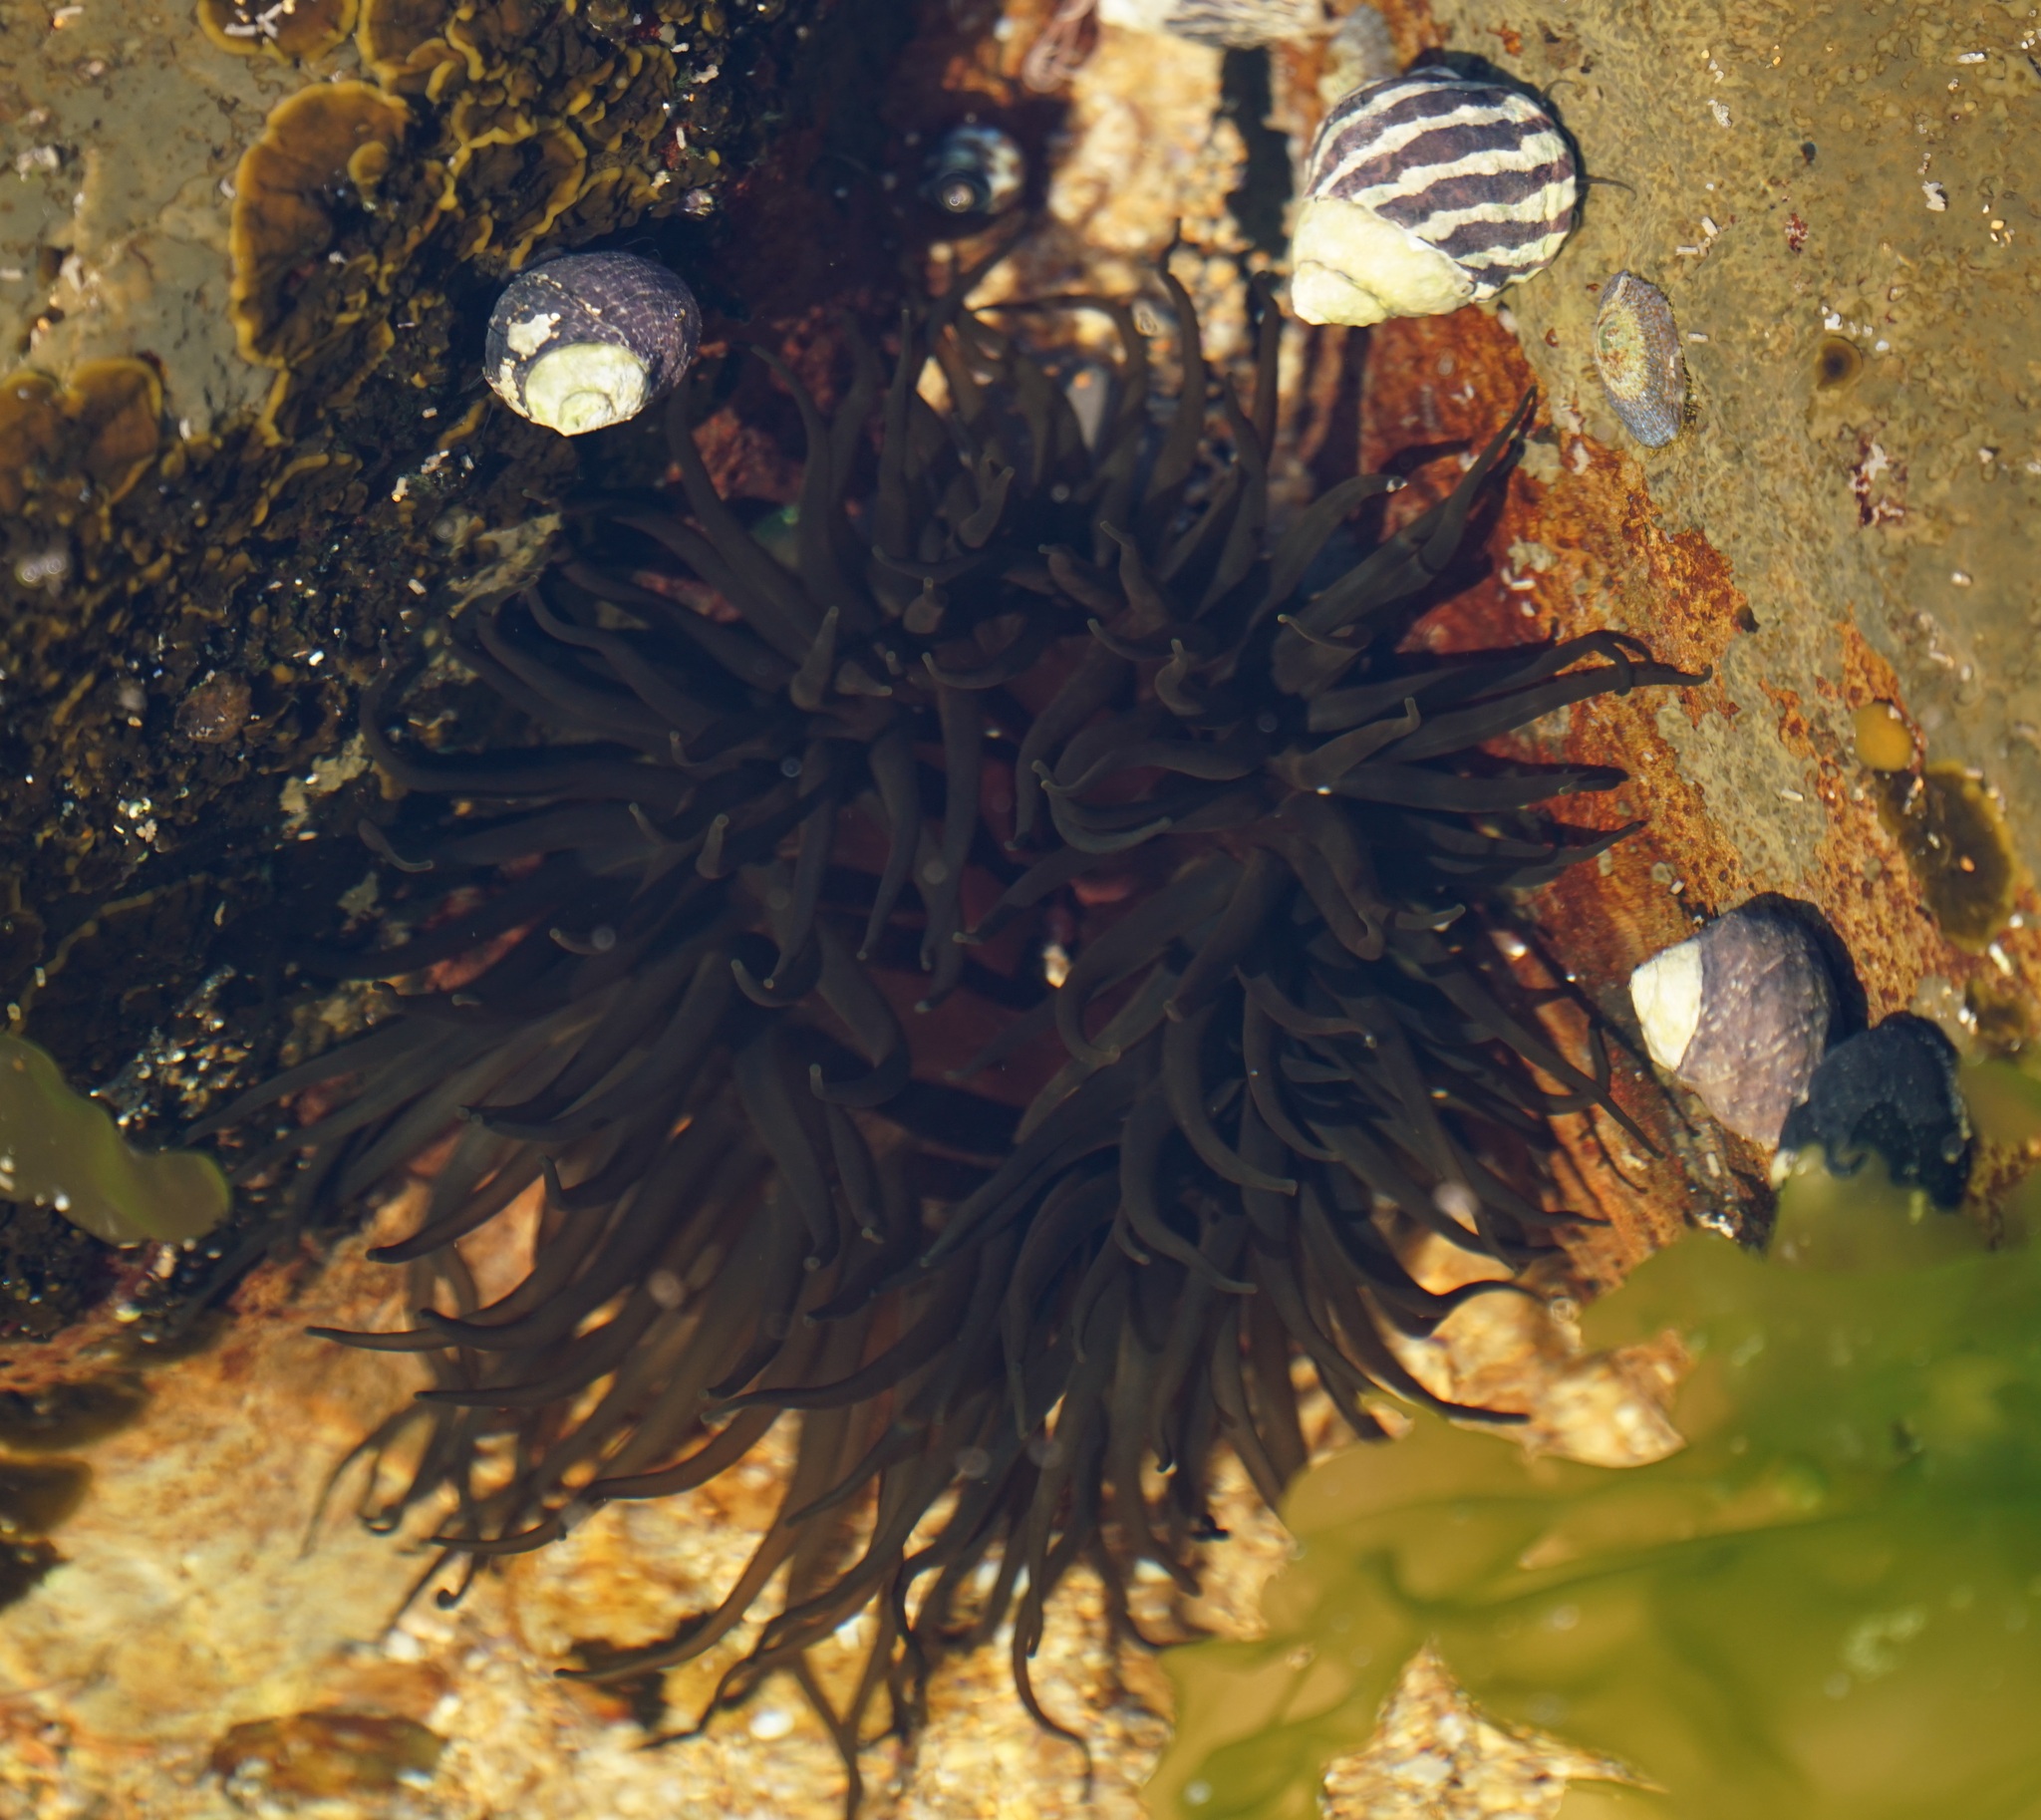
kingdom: Animalia
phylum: Cnidaria
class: Anthozoa
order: Actiniaria
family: Actiniidae
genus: Aulactinia
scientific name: Aulactinia veratra
